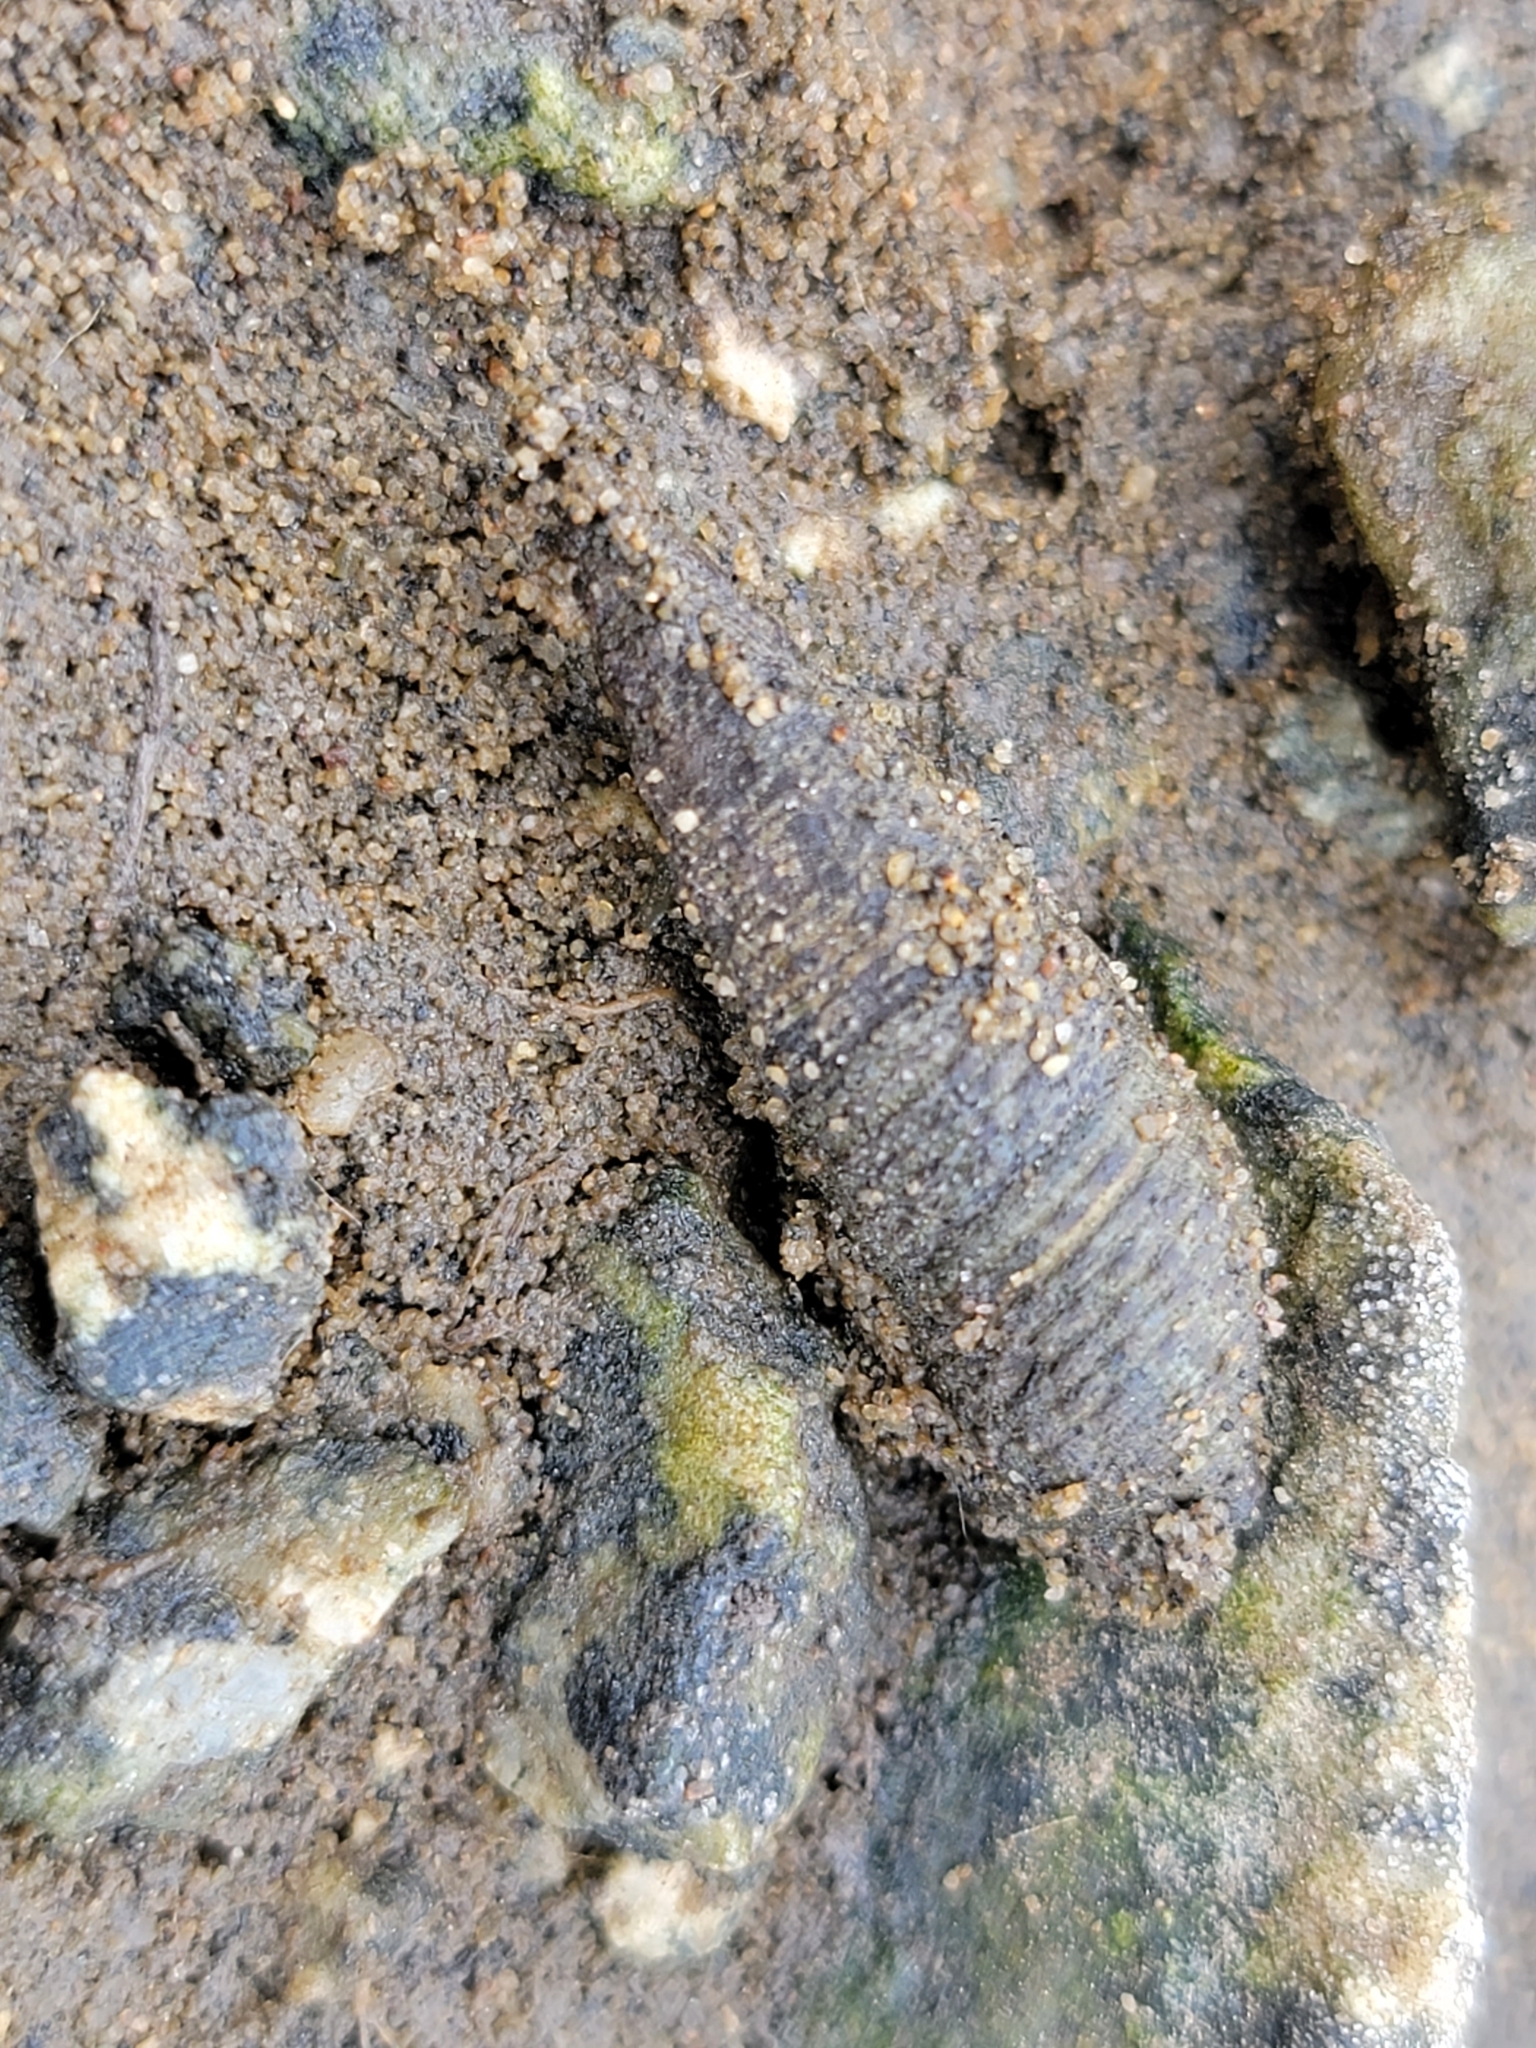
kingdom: Animalia
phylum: Mollusca
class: Gastropoda
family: Batillariidae
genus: Batillaria
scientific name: Batillaria attramentaria
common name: Japanese false cerith
